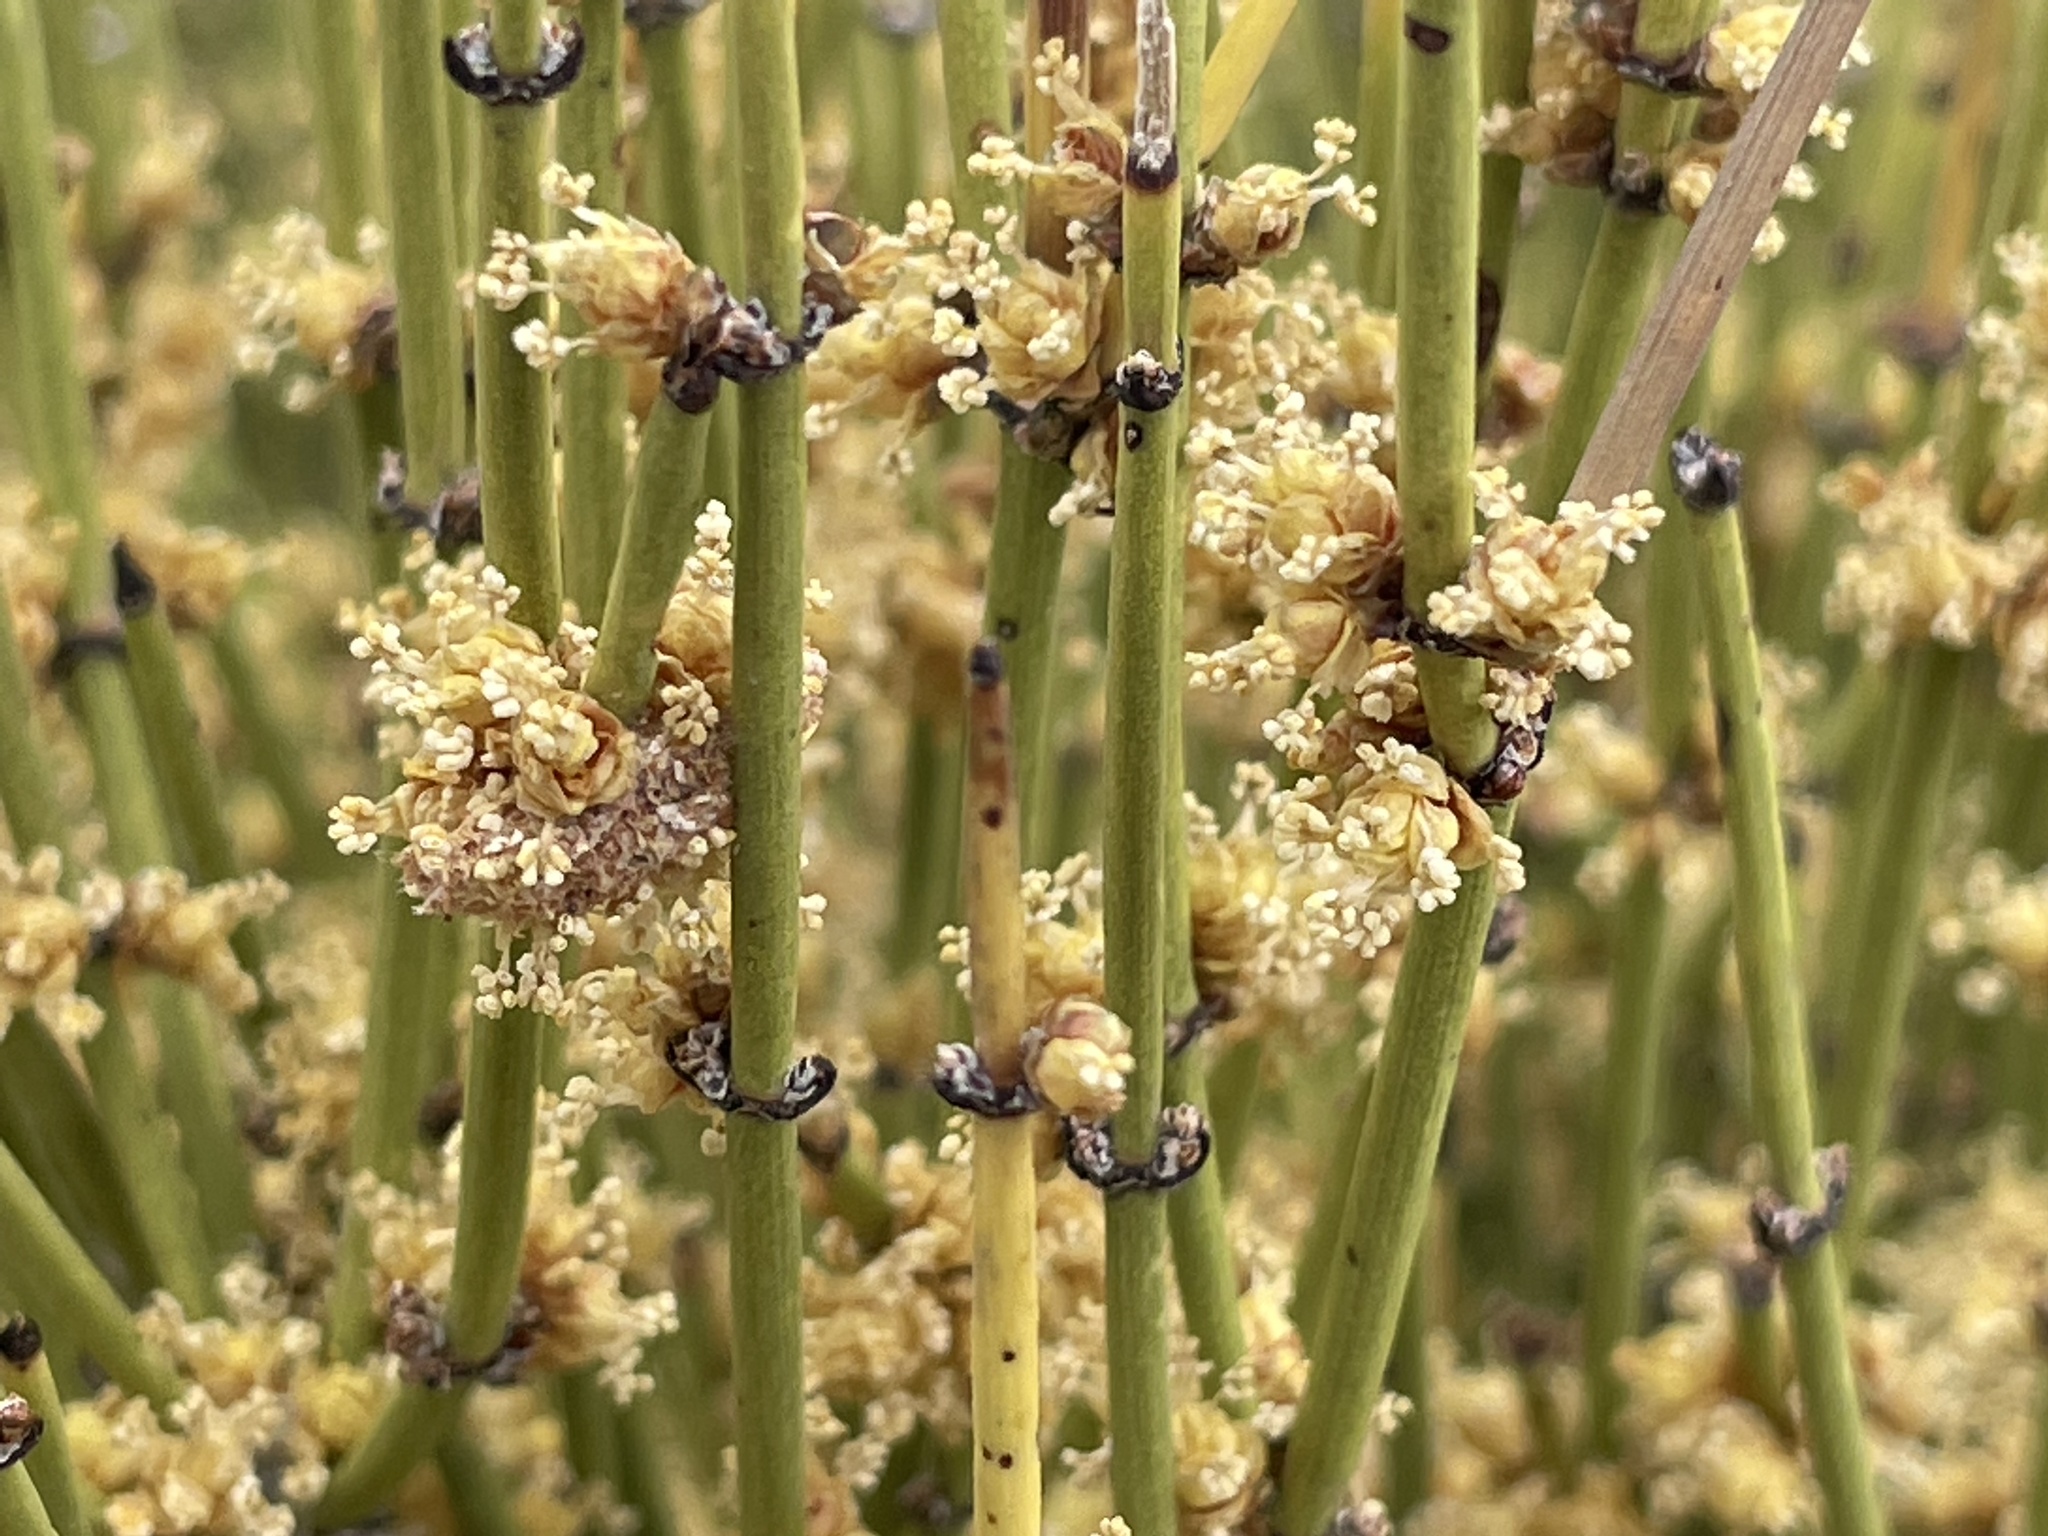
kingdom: Plantae
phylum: Tracheophyta
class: Gnetopsida
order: Ephedrales
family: Ephedraceae
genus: Ephedra
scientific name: Ephedra viridis
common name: Green ephedra
